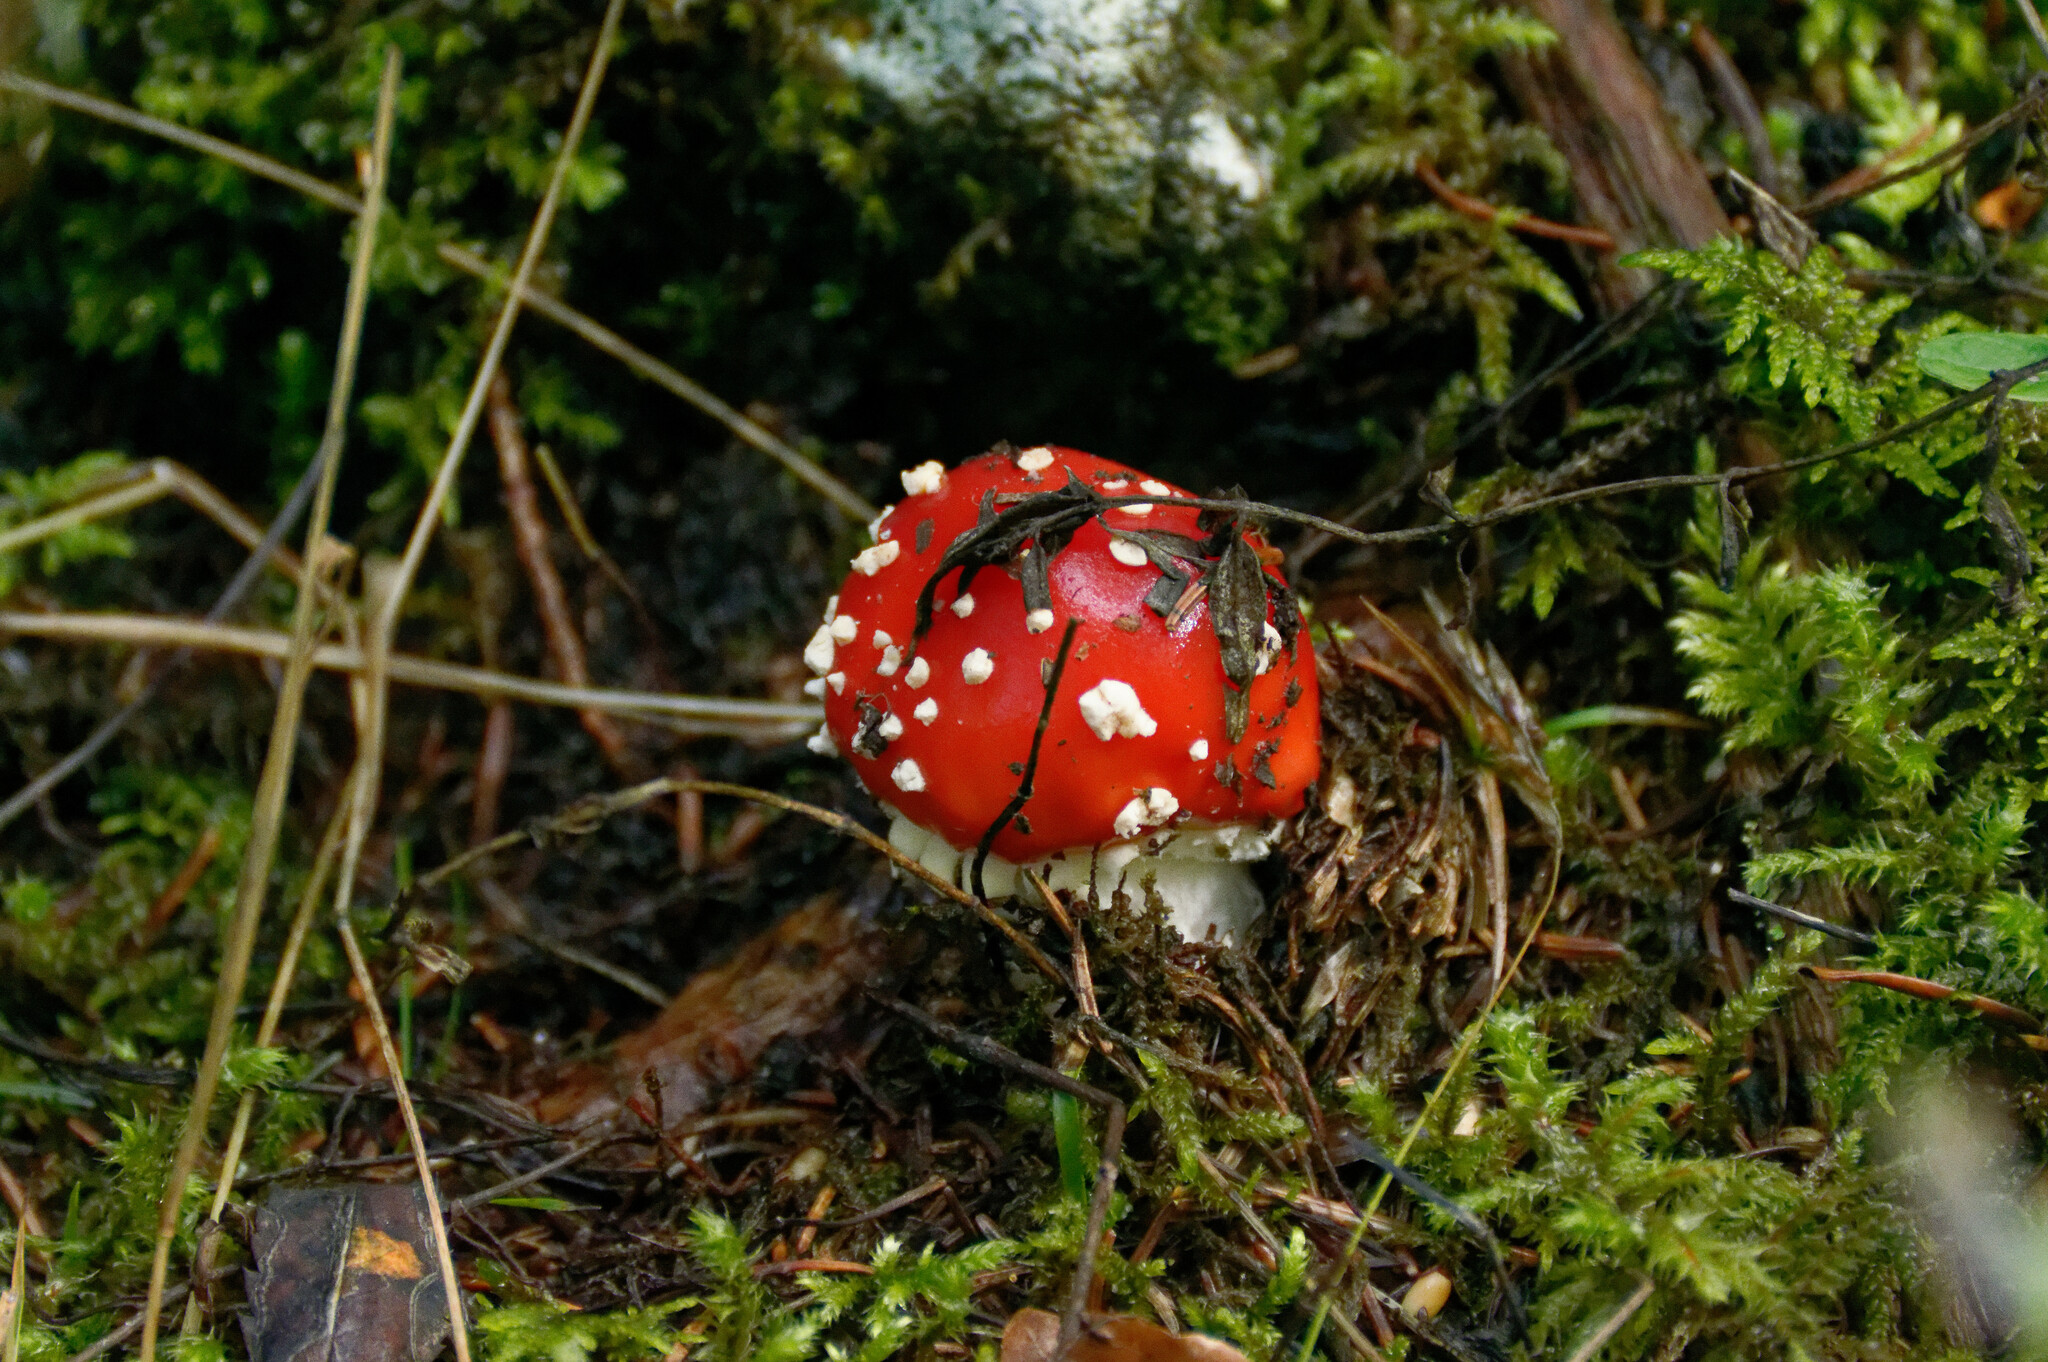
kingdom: Fungi
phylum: Basidiomycota
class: Agaricomycetes
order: Agaricales
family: Amanitaceae
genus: Amanita
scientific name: Amanita muscaria
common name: Fly agaric
